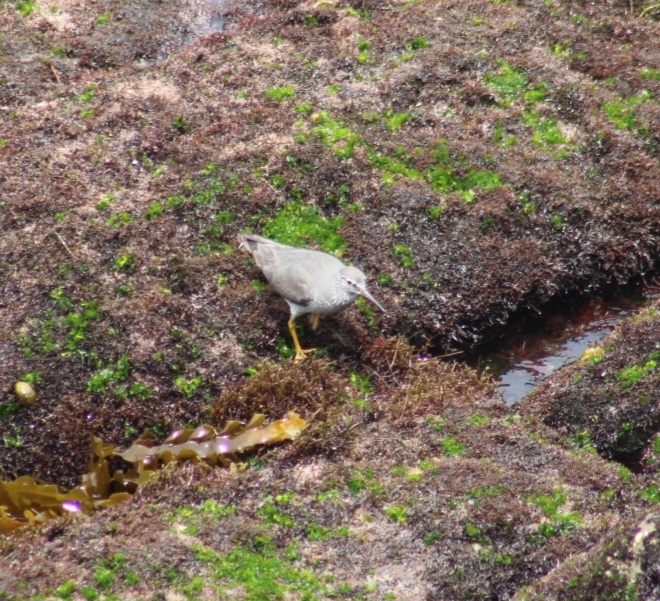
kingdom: Animalia
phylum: Chordata
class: Aves
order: Charadriiformes
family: Scolopacidae
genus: Tringa
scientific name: Tringa incana
